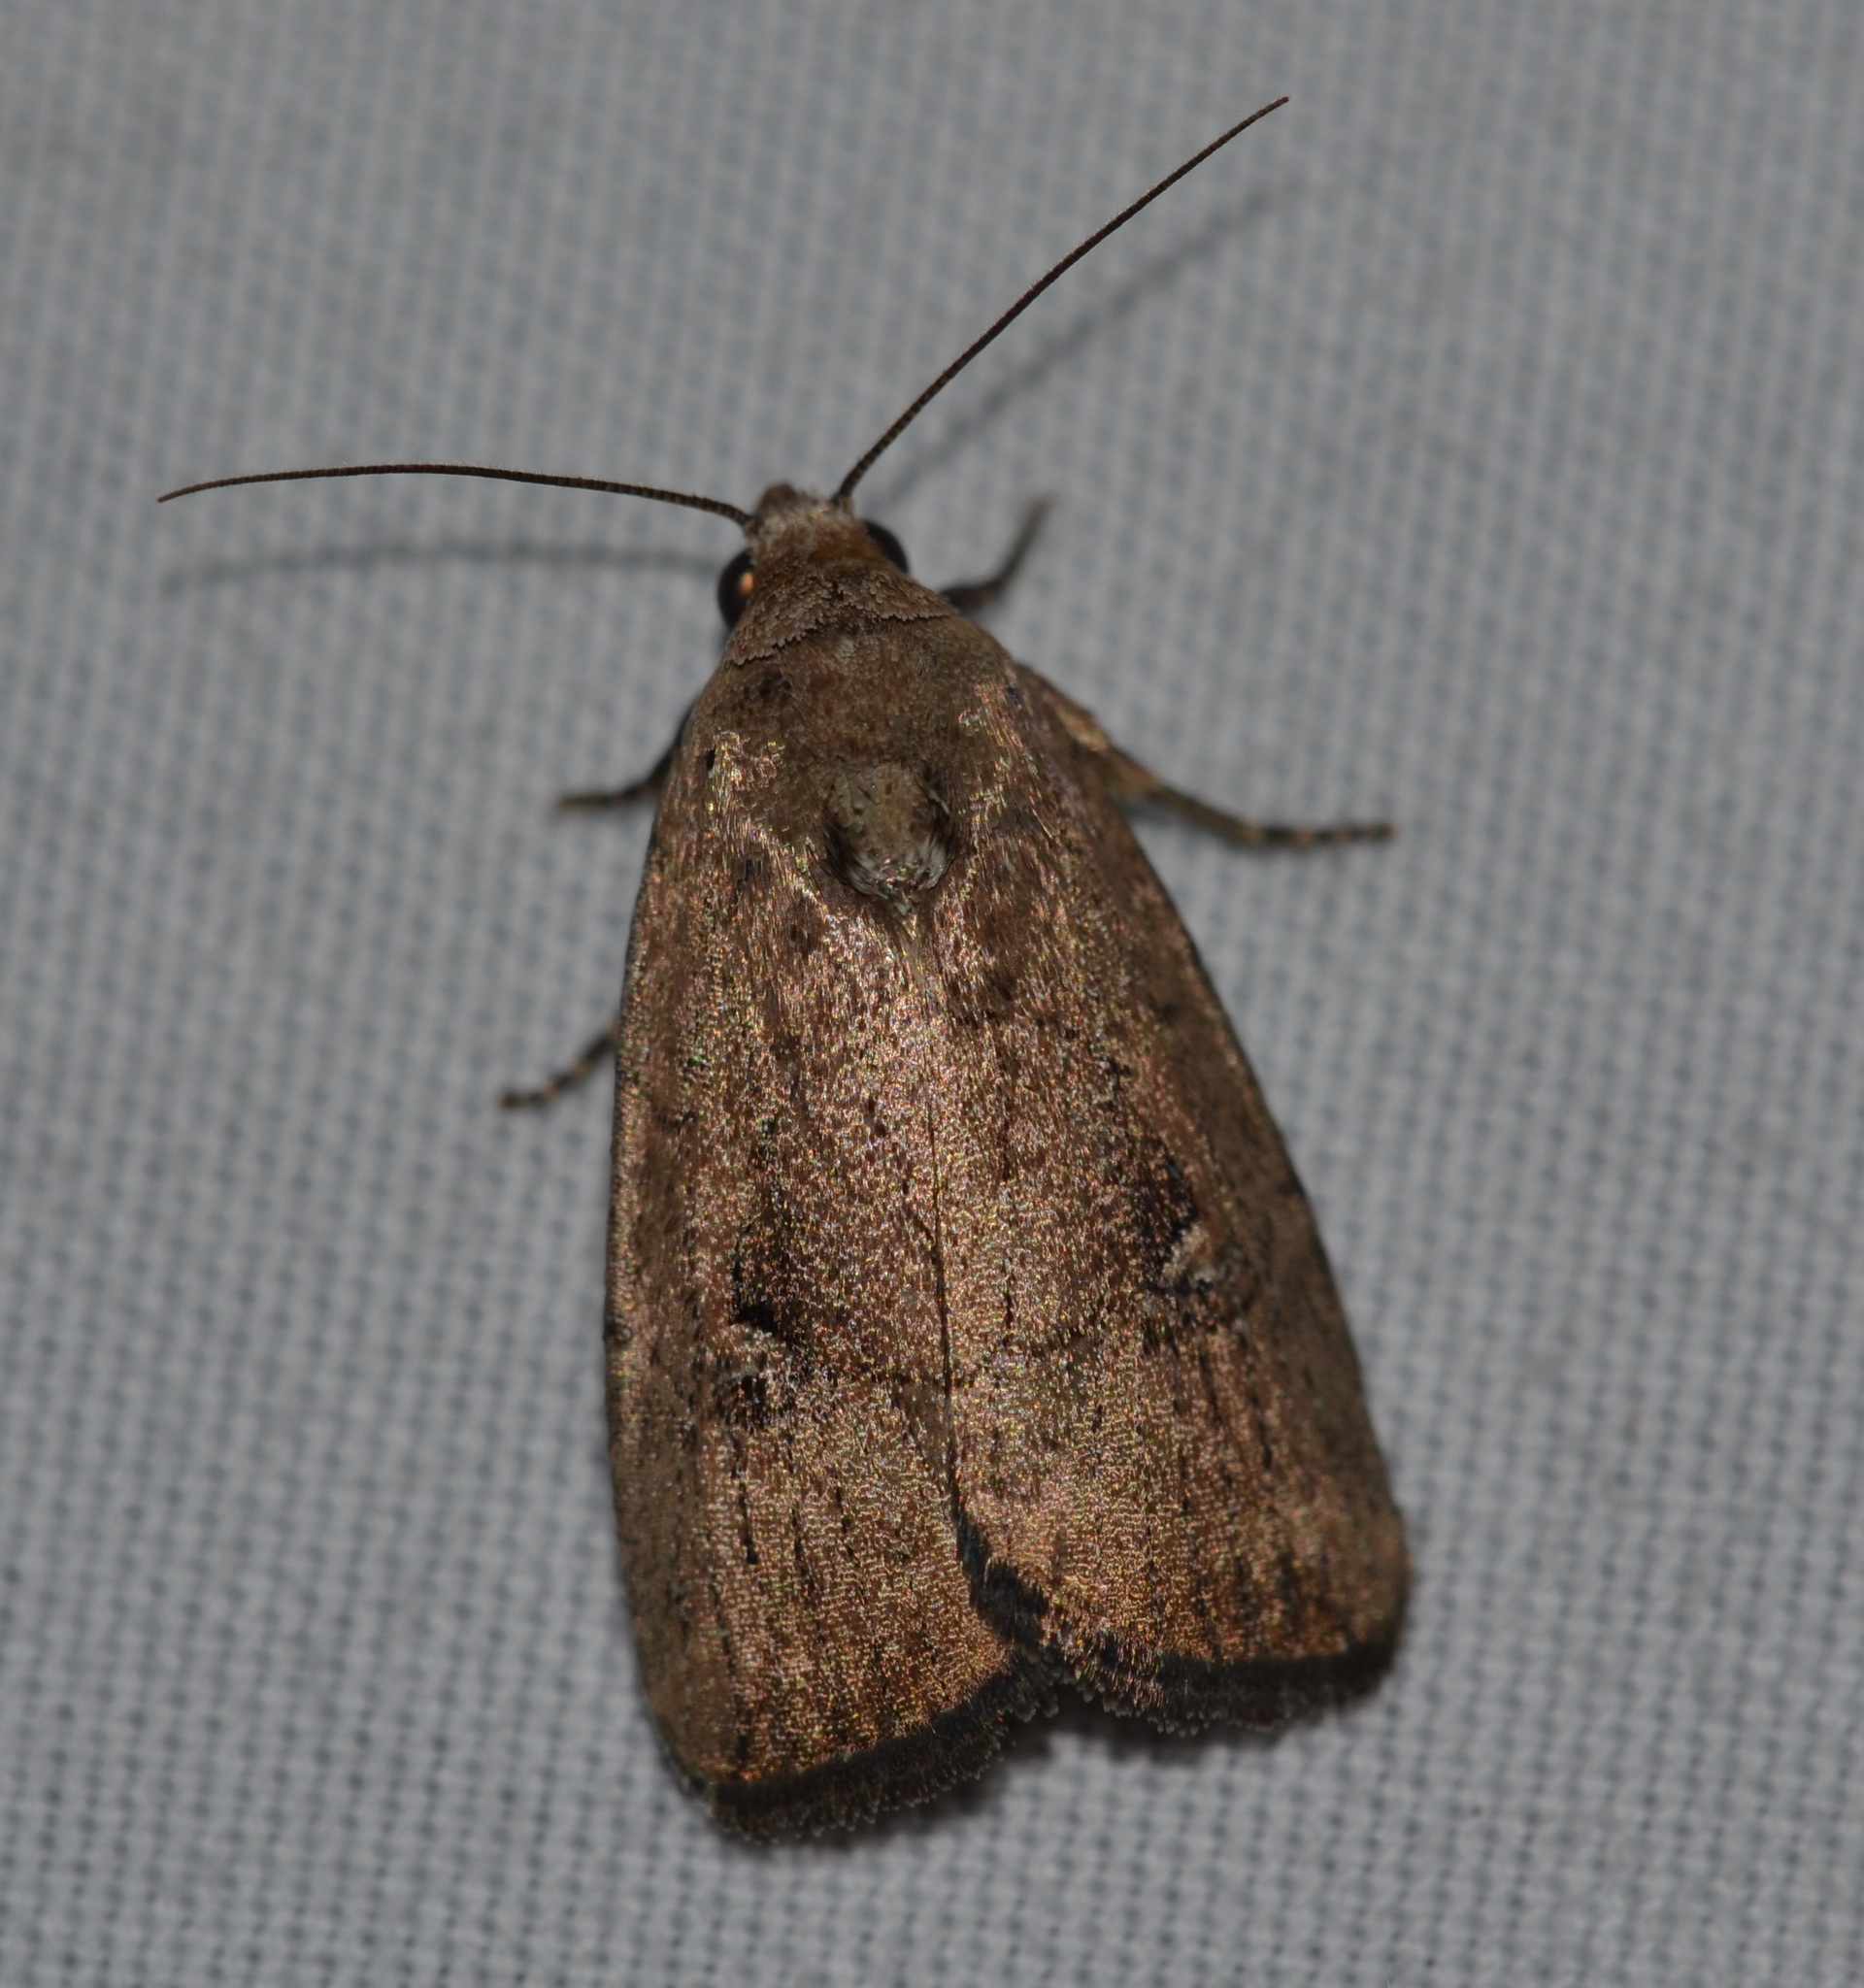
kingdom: Animalia
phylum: Arthropoda
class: Insecta
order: Lepidoptera
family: Noctuidae
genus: Elaphria
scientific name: Elaphria nucicolora
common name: Sugarcane midget moth
